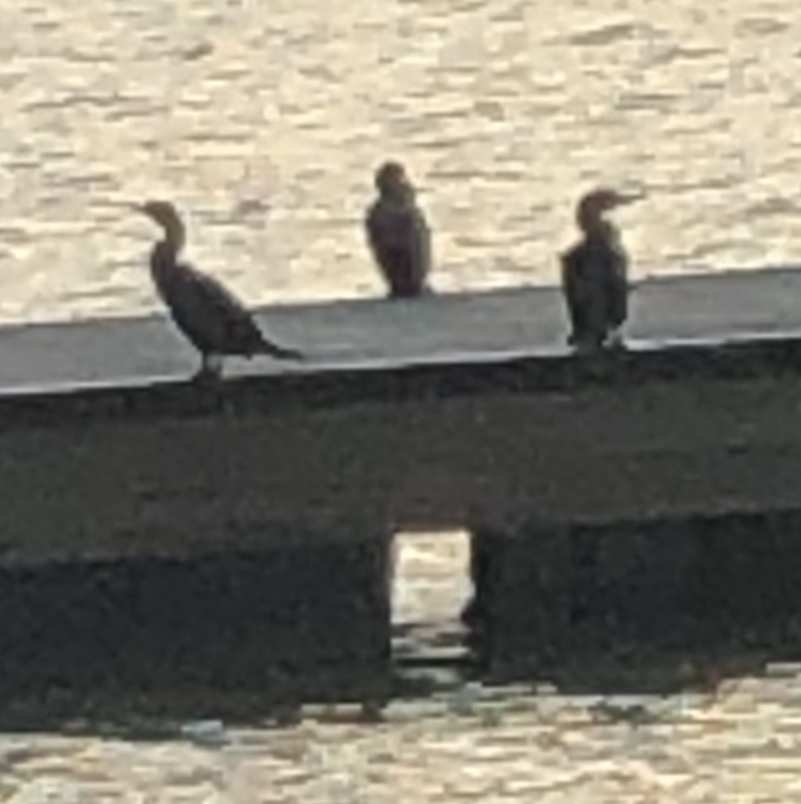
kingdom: Animalia
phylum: Chordata
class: Aves
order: Suliformes
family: Phalacrocoracidae
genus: Phalacrocorax
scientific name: Phalacrocorax auritus
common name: Double-crested cormorant
